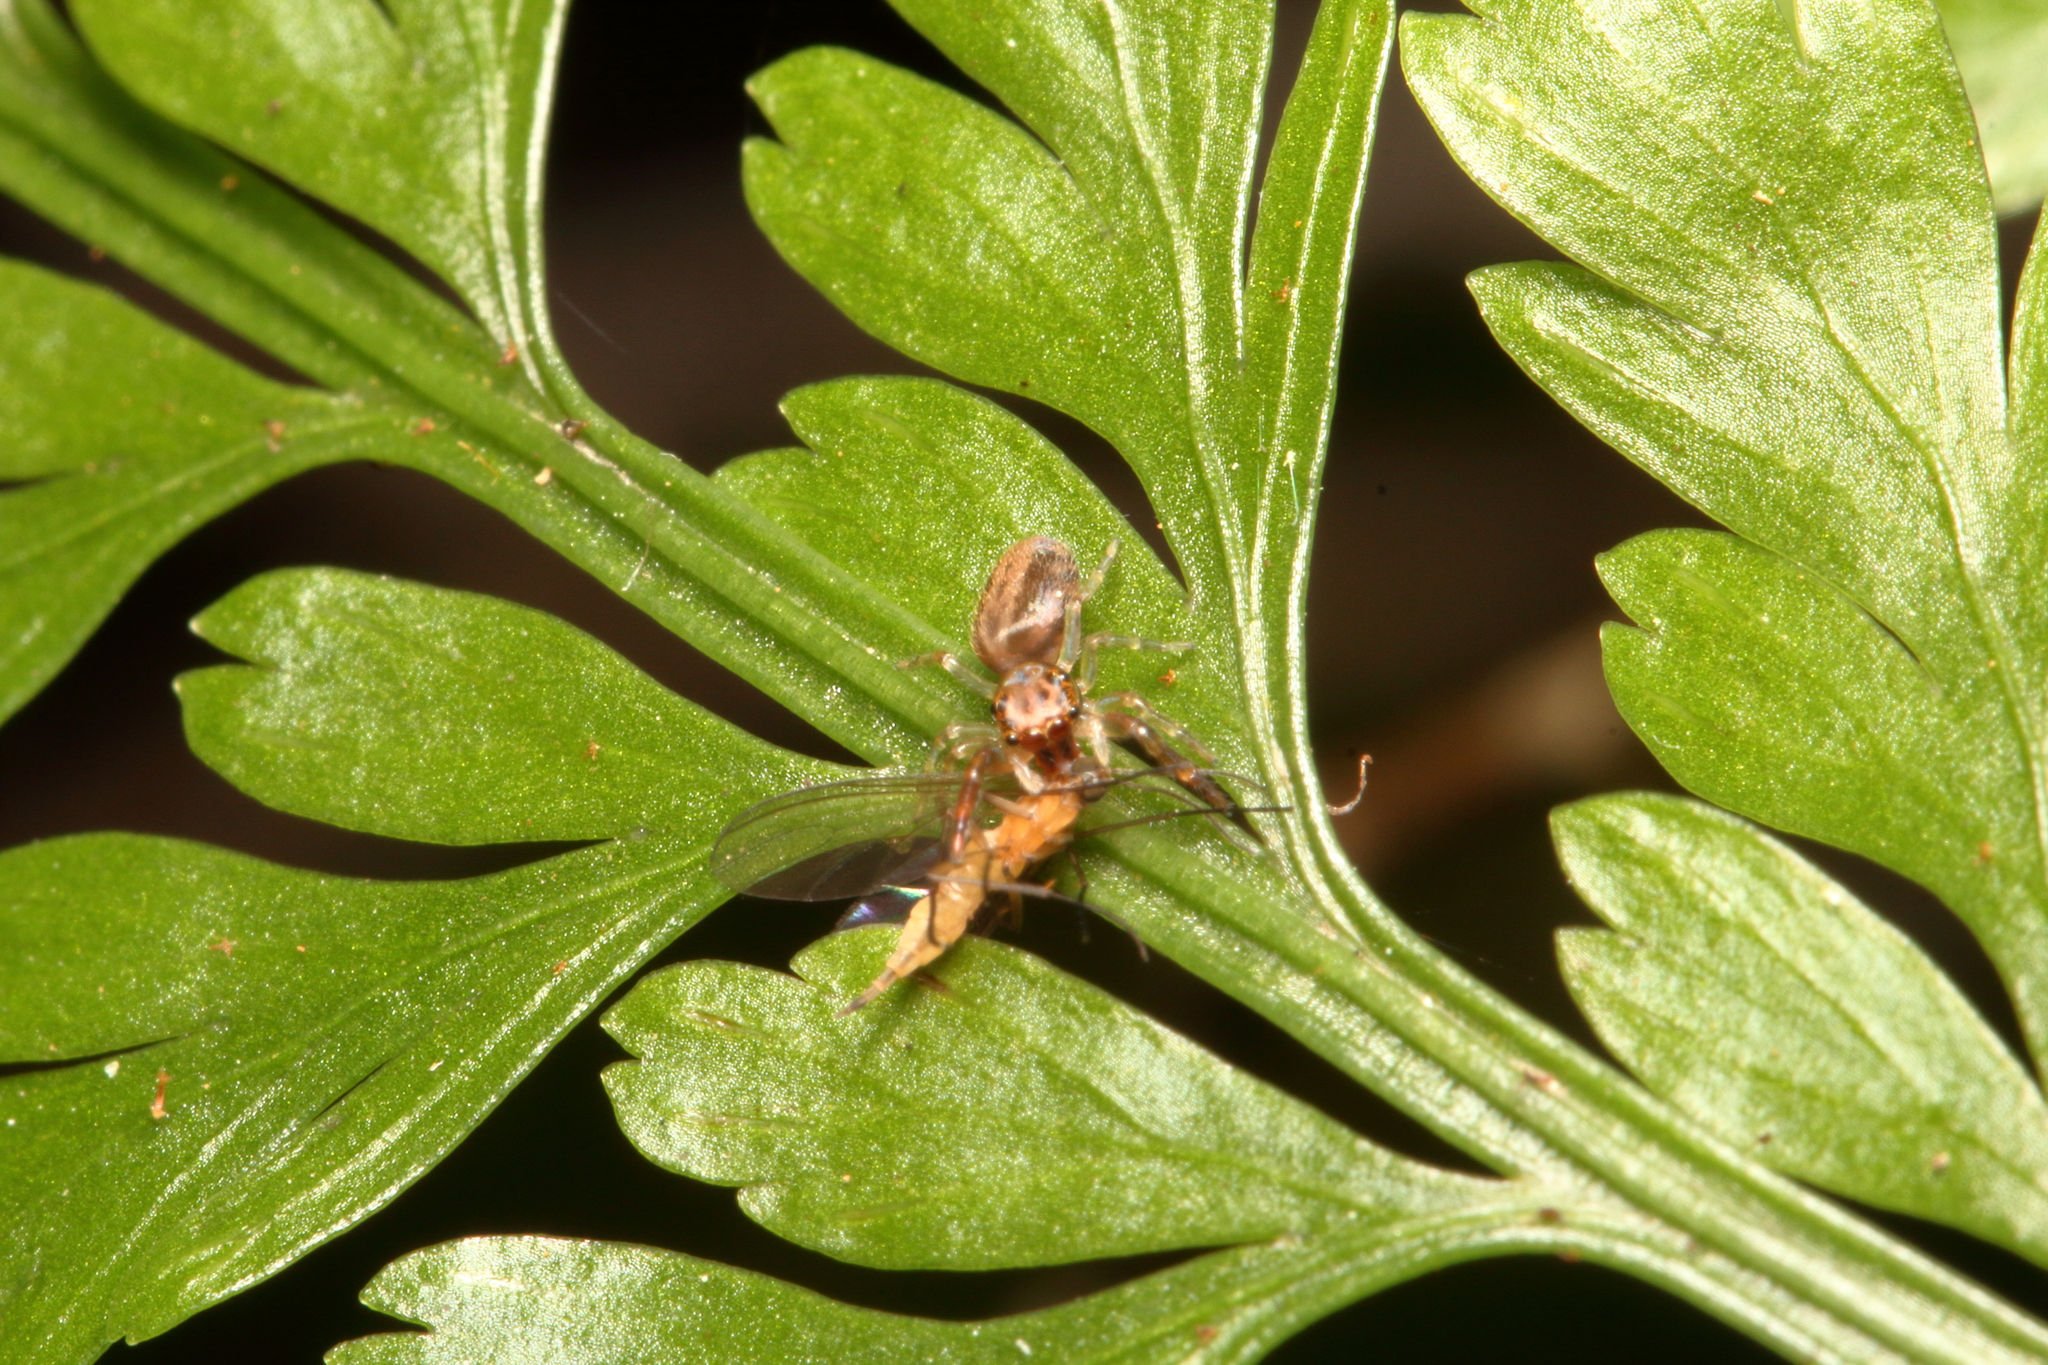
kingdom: Animalia
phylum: Arthropoda
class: Arachnida
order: Araneae
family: Salticidae
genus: Trite
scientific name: Trite mustilina
